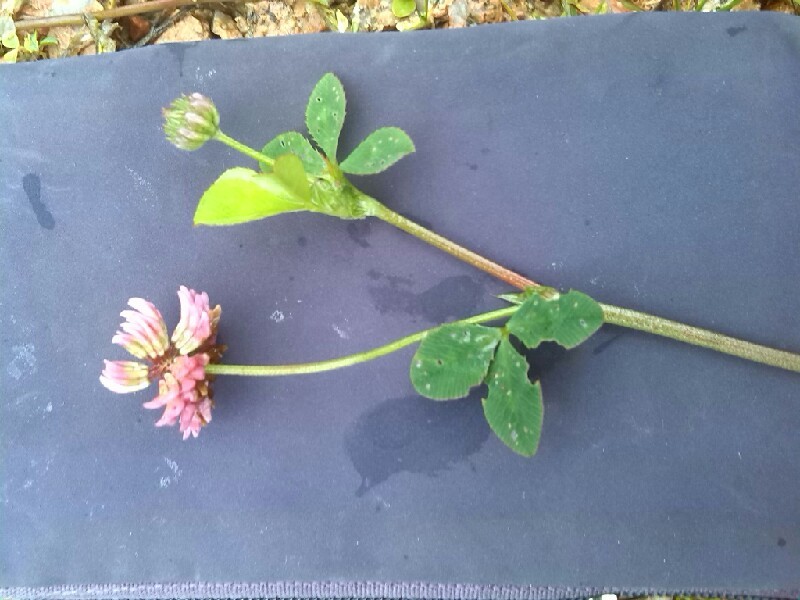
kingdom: Plantae
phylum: Tracheophyta
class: Magnoliopsida
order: Fabales
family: Fabaceae
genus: Trifolium
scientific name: Trifolium hybridum
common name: Alsike clover
